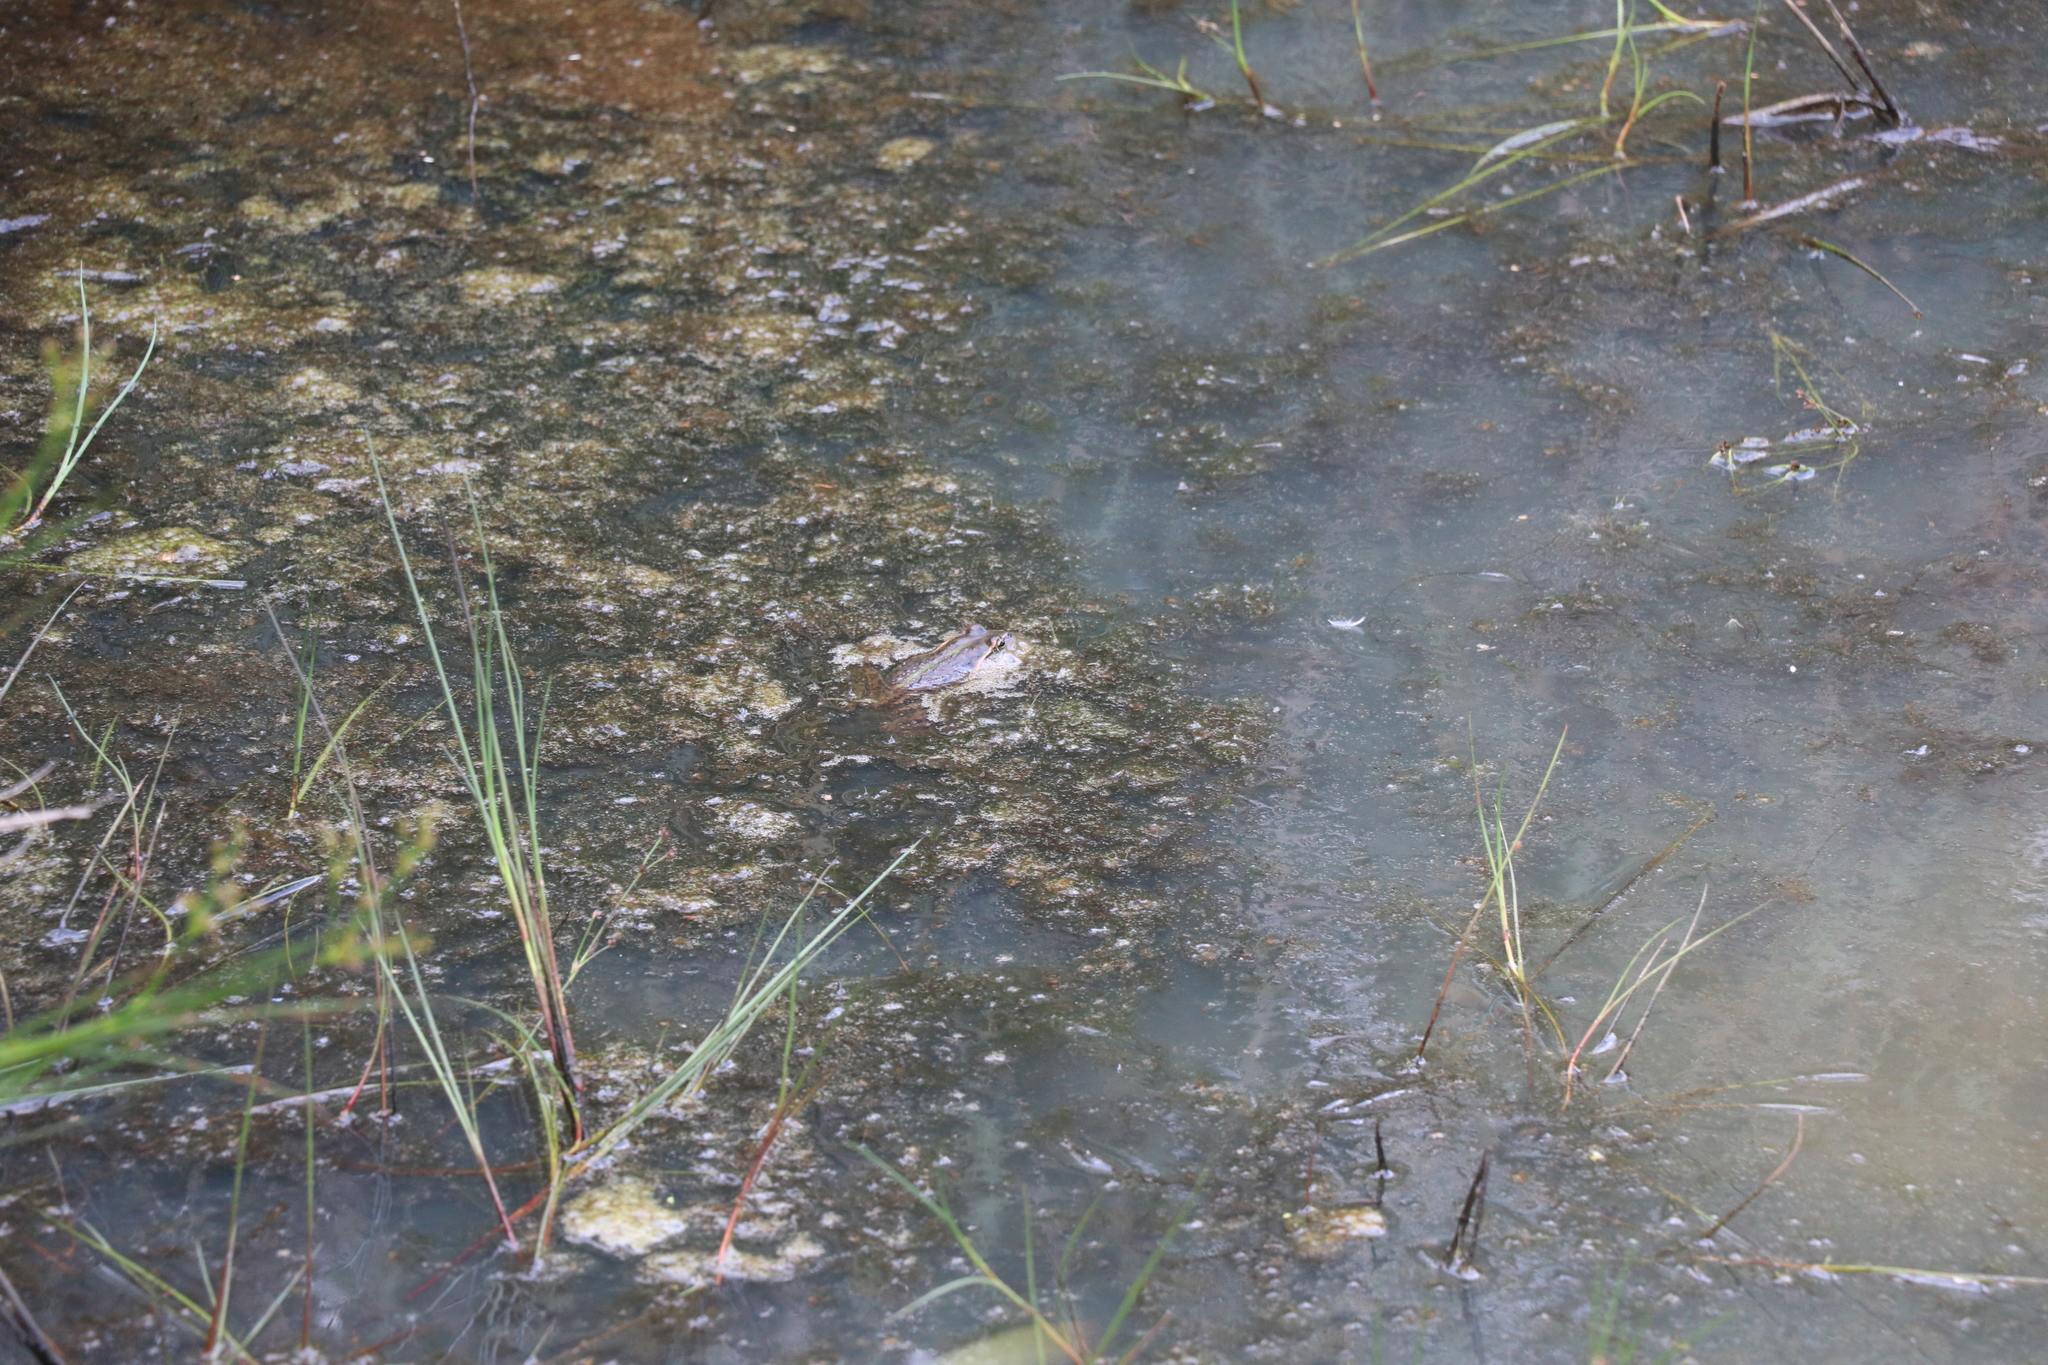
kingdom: Animalia
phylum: Chordata
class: Amphibia
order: Anura
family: Pelodryadidae
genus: Ranoidea
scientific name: Ranoidea raniformis
